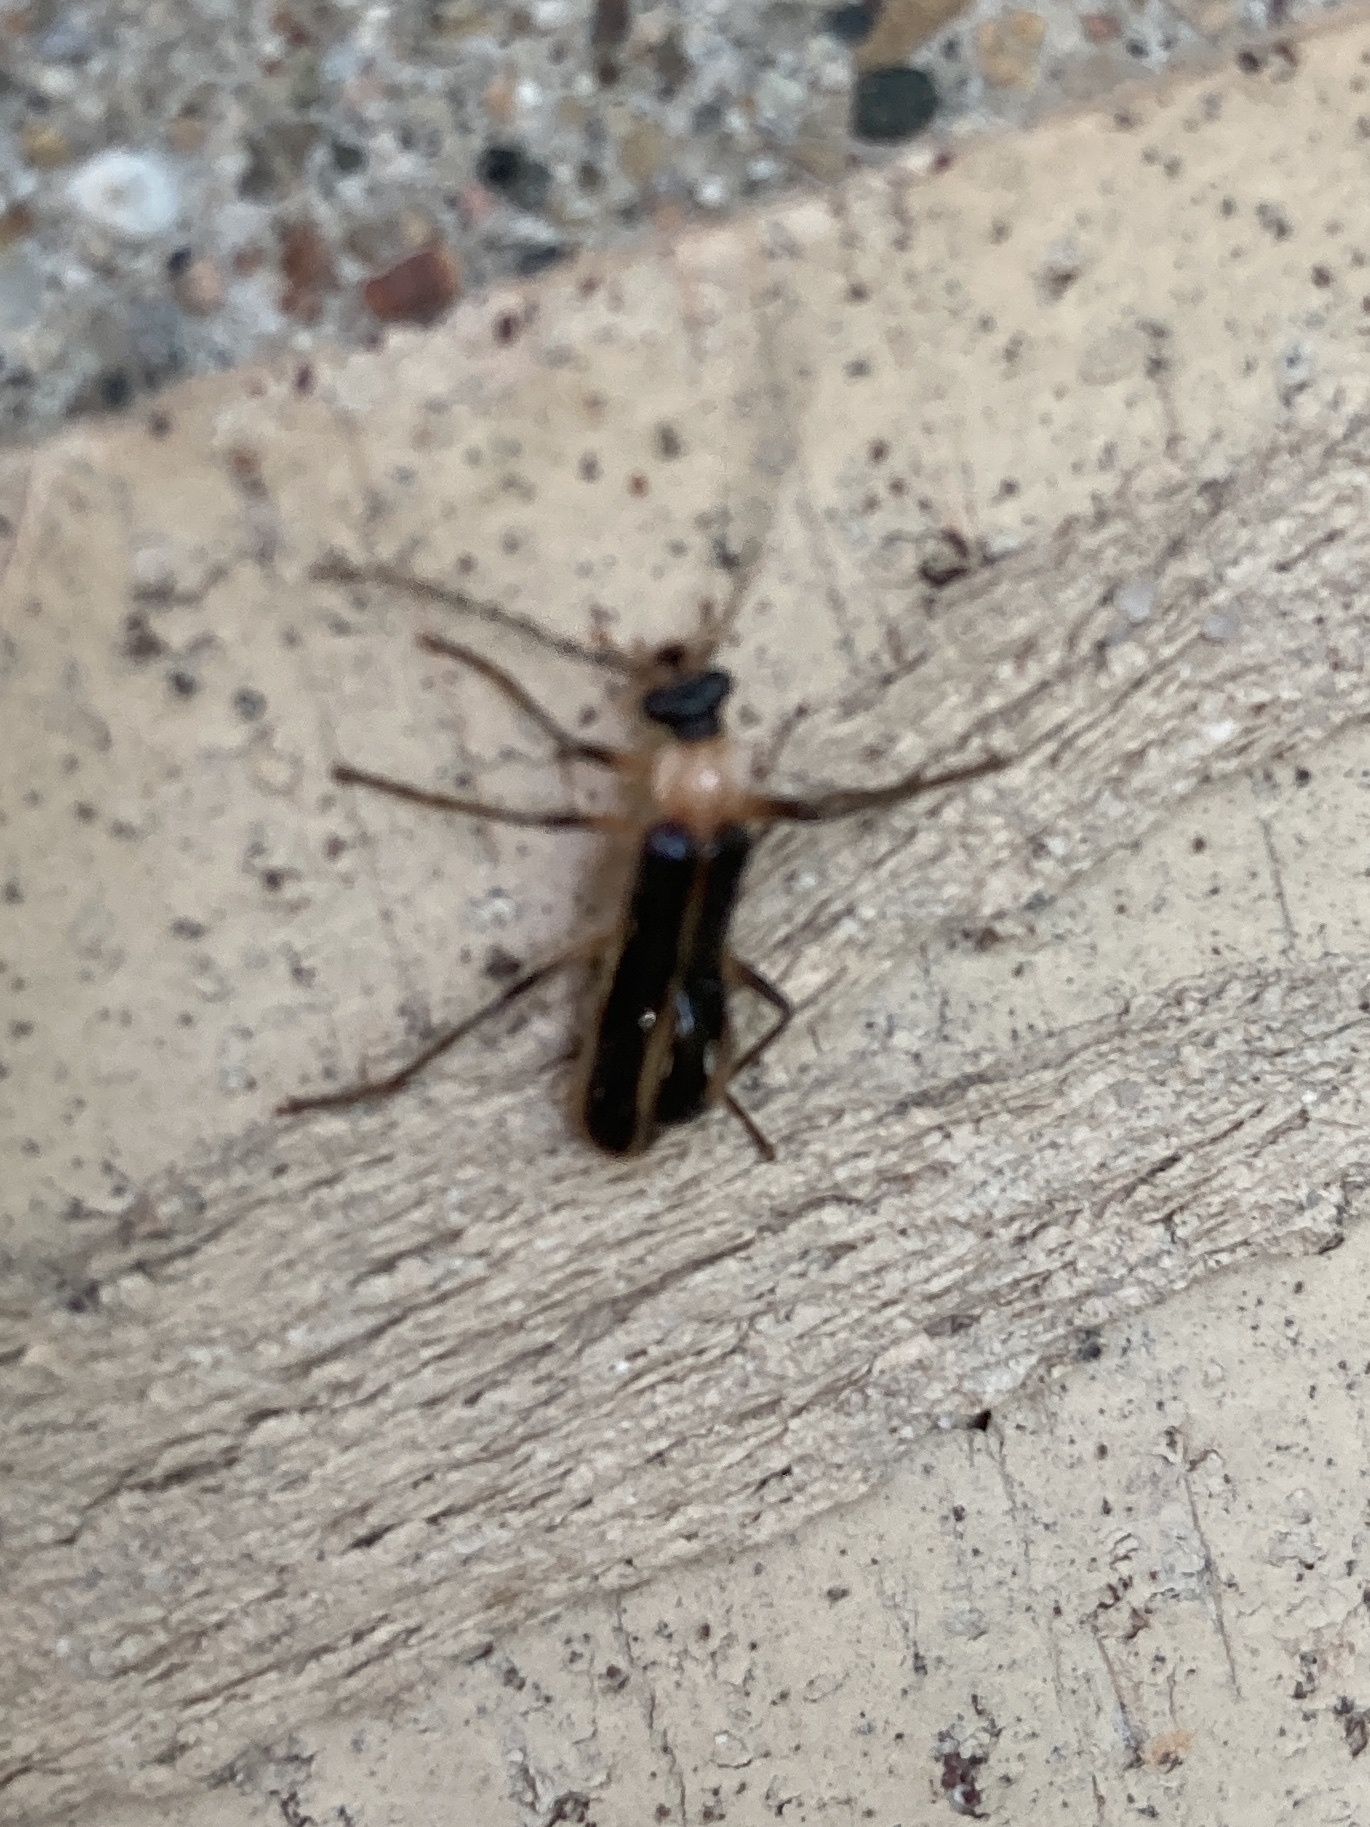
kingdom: Animalia
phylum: Arthropoda
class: Insecta
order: Coleoptera
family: Cantharidae
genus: Podabrus
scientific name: Podabrus flavicollis
